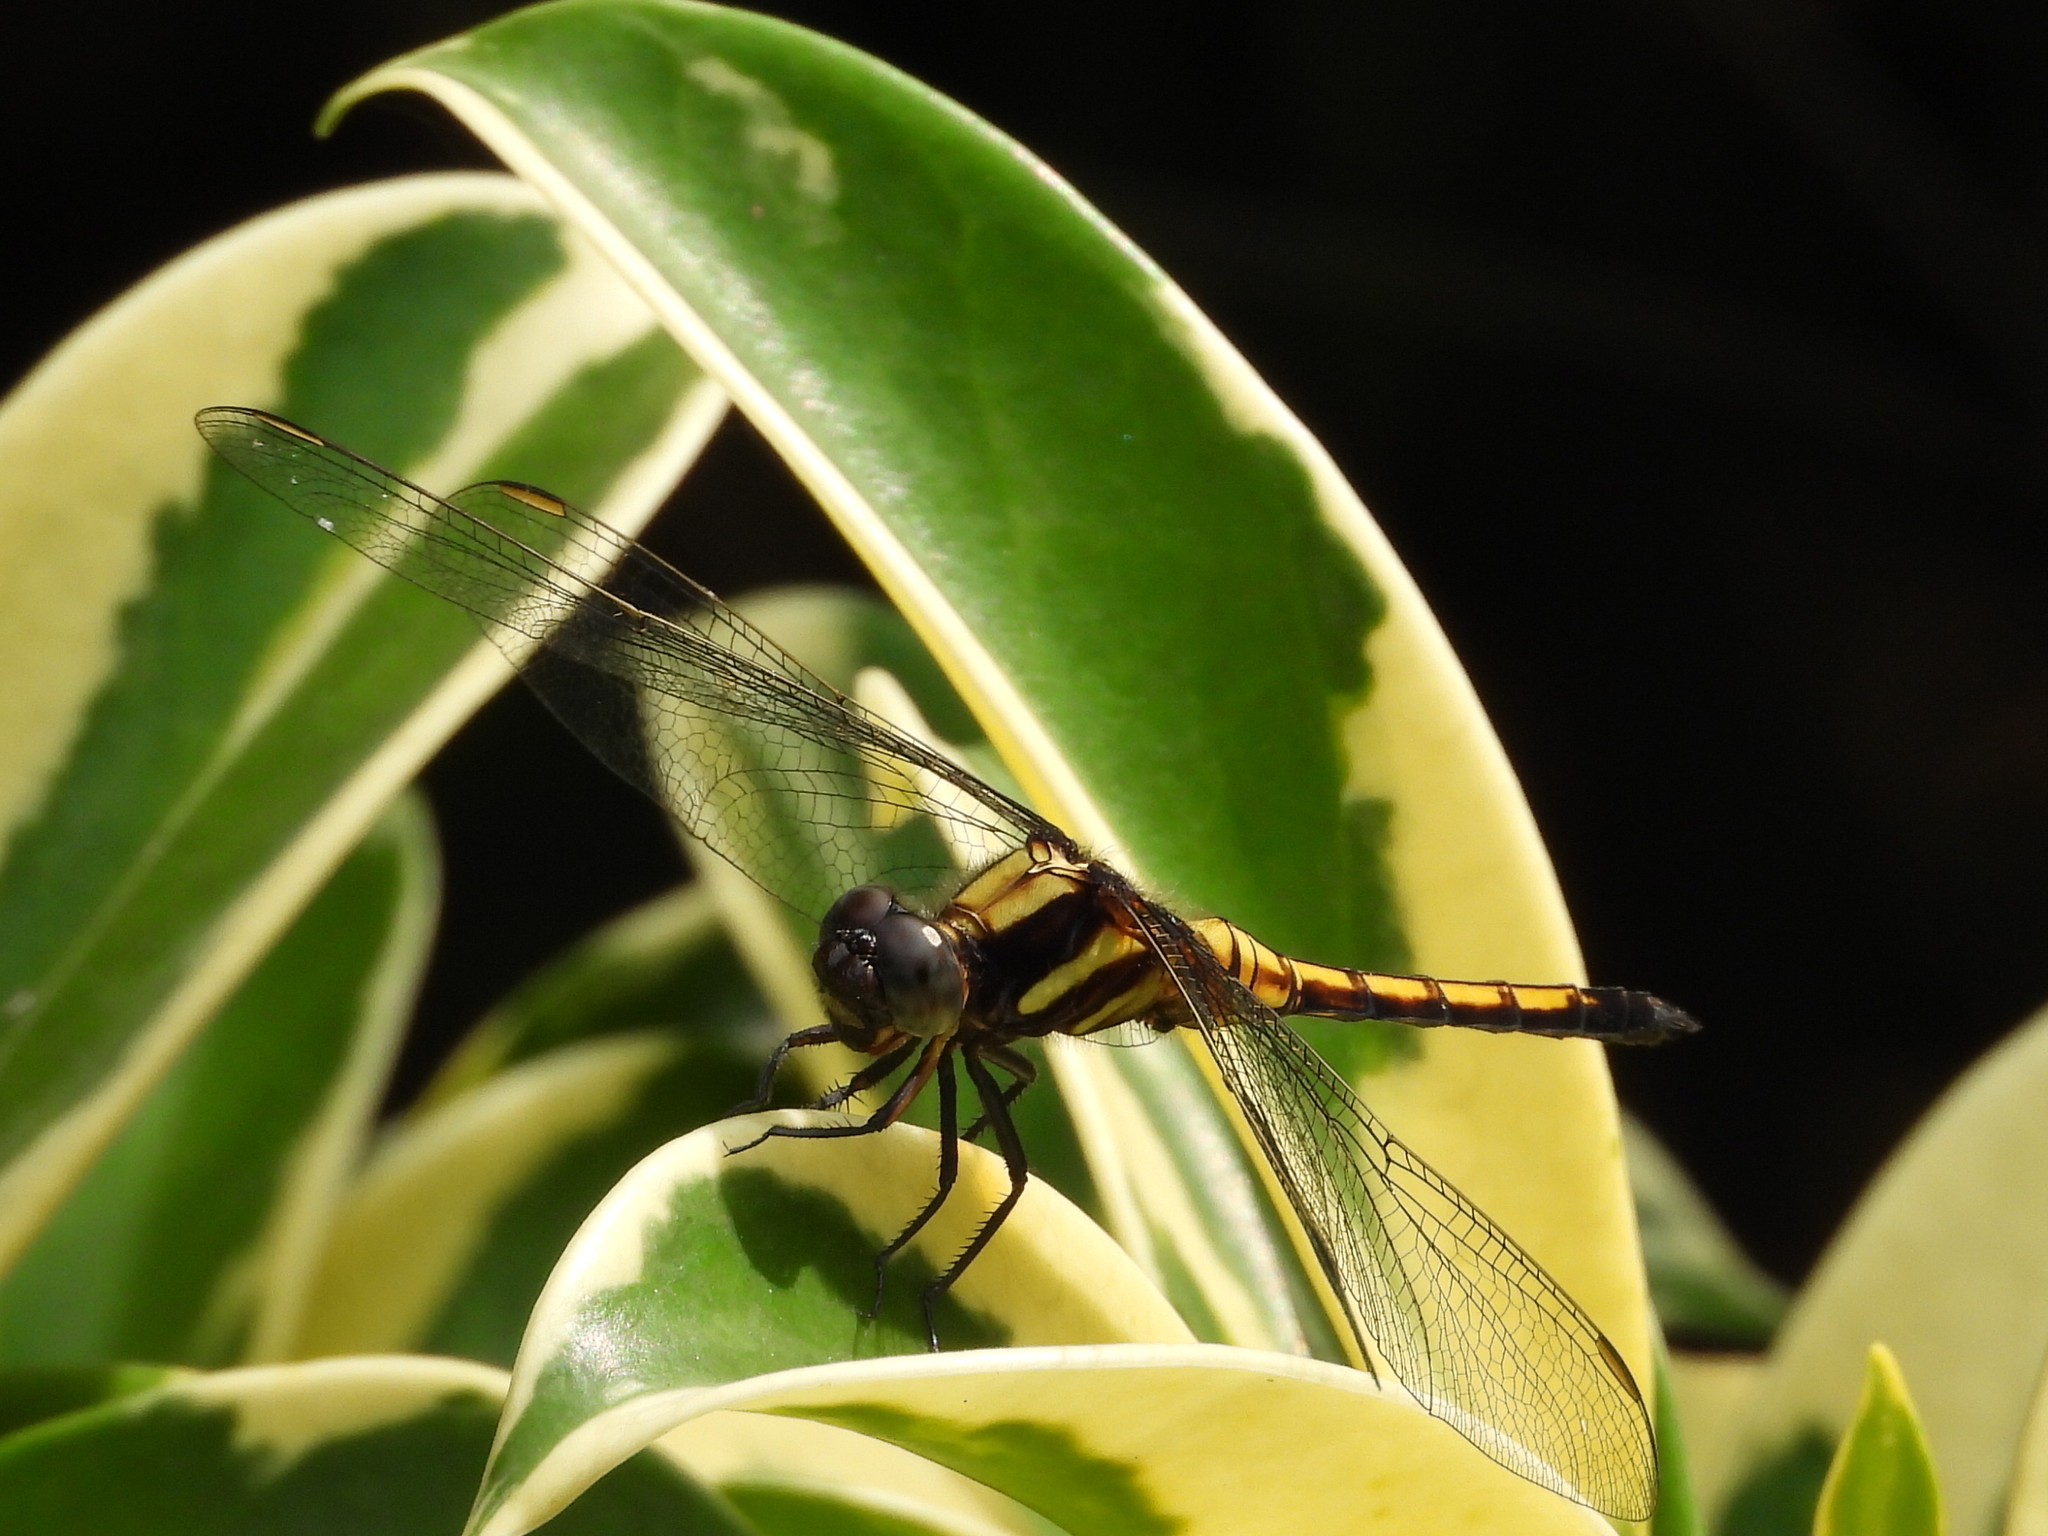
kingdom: Animalia
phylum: Arthropoda
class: Insecta
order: Odonata
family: Libellulidae
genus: Orthetrum
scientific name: Orthetrum glaucum
